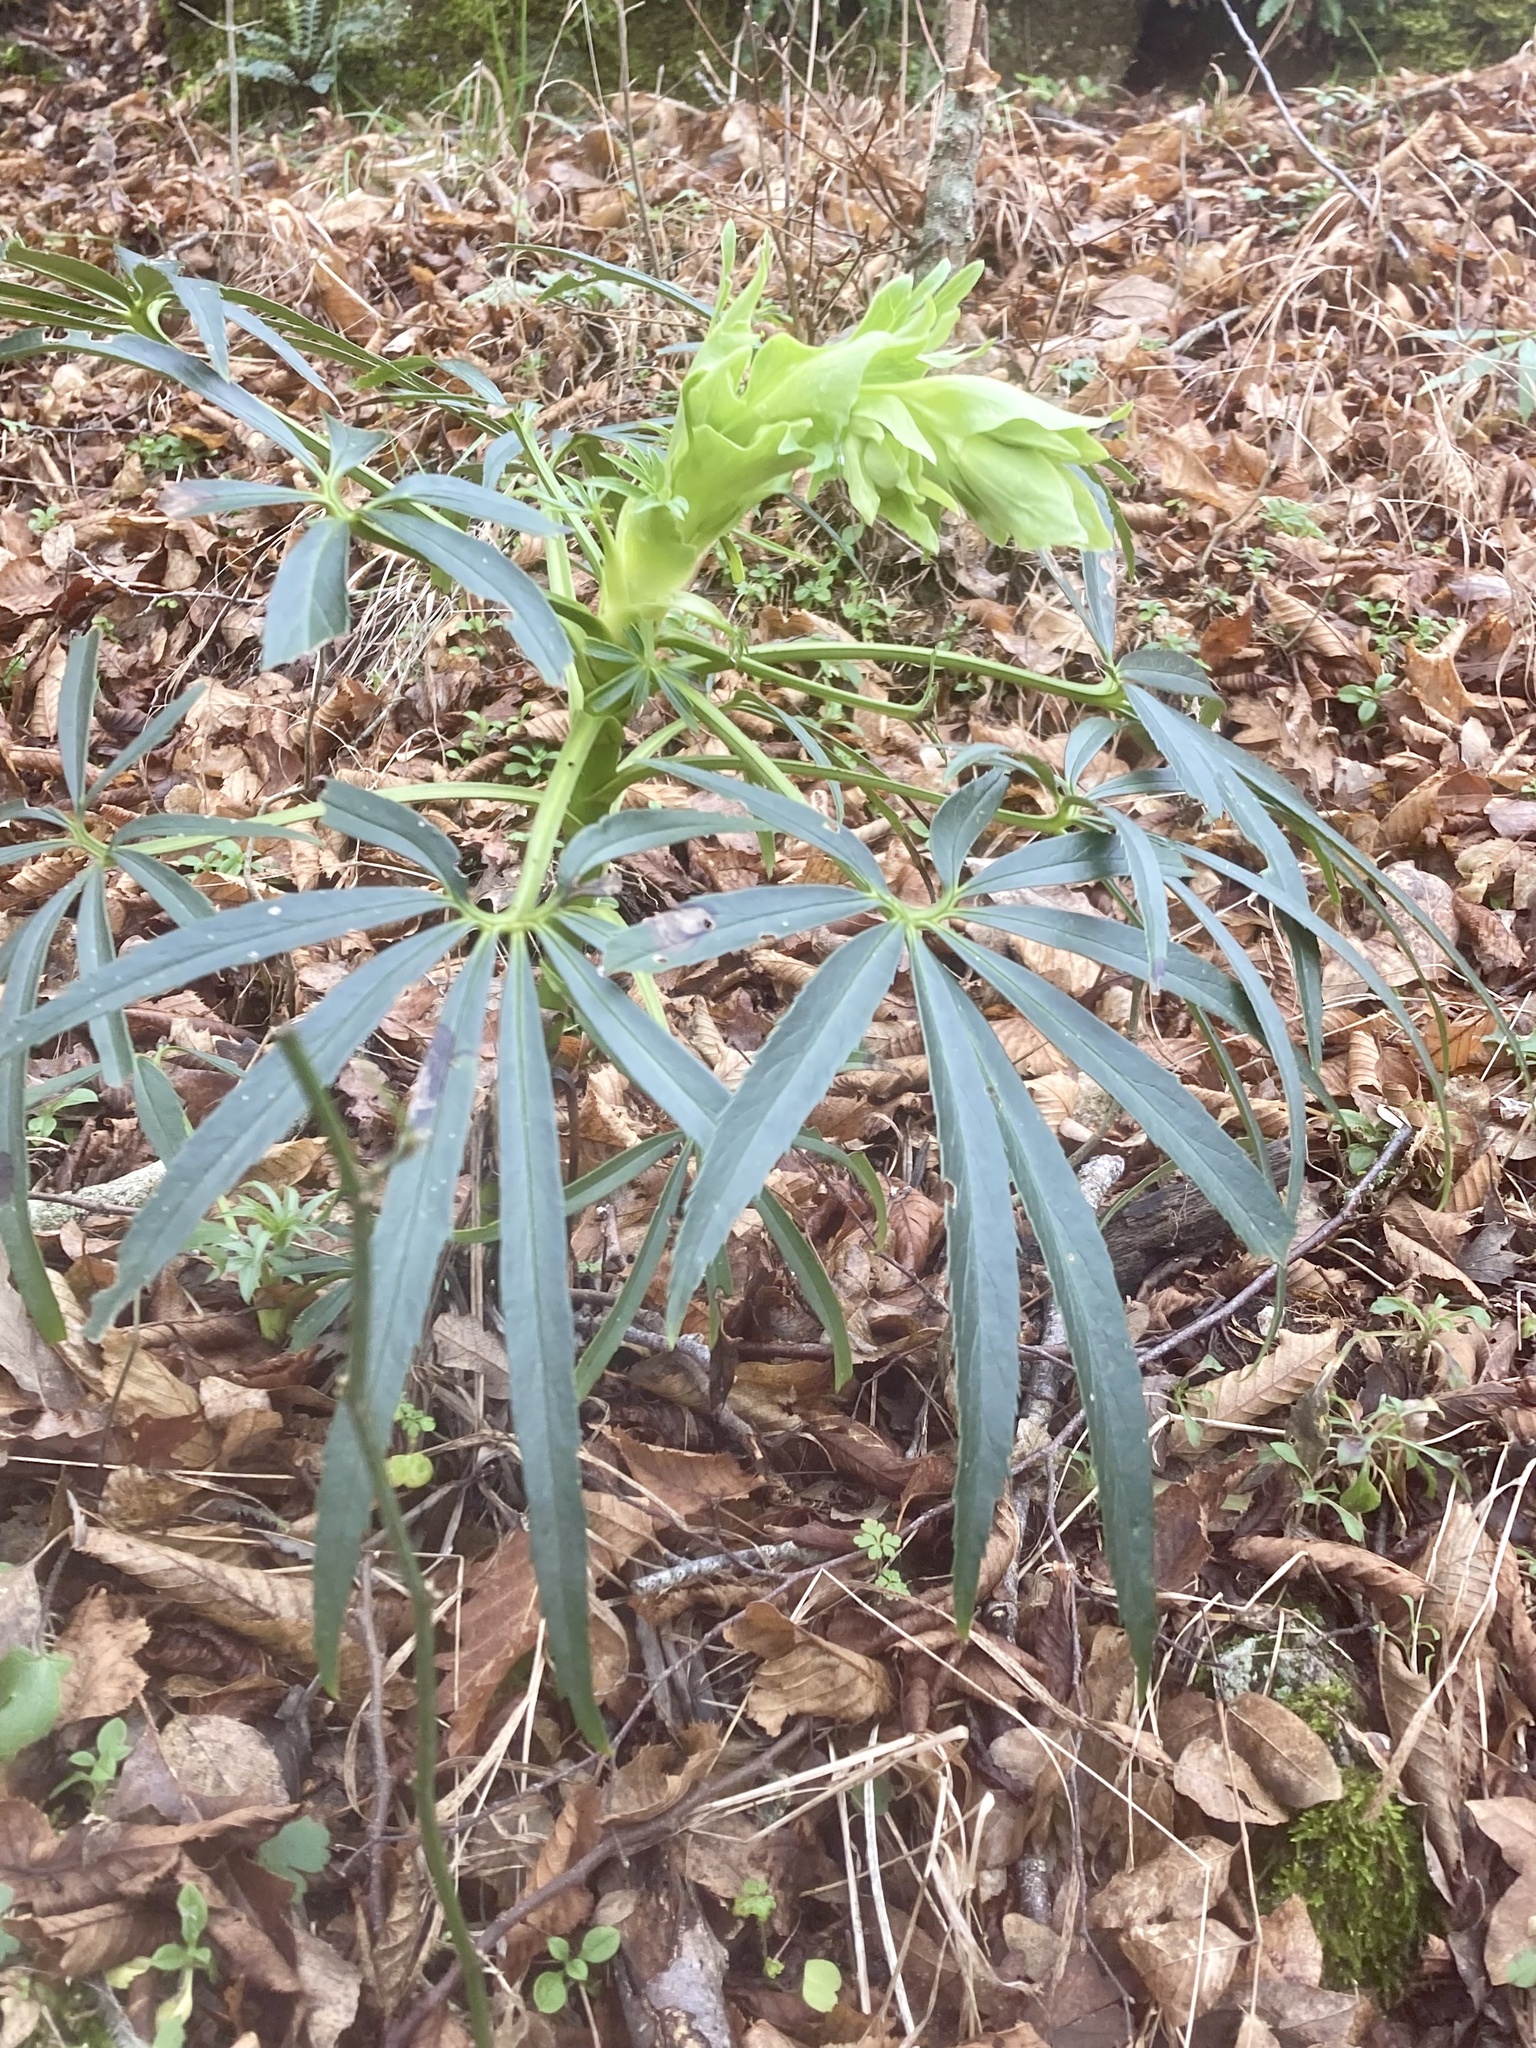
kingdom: Plantae
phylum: Tracheophyta
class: Magnoliopsida
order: Ranunculales
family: Ranunculaceae
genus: Helleborus
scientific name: Helleborus foetidus
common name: Stinking hellebore
